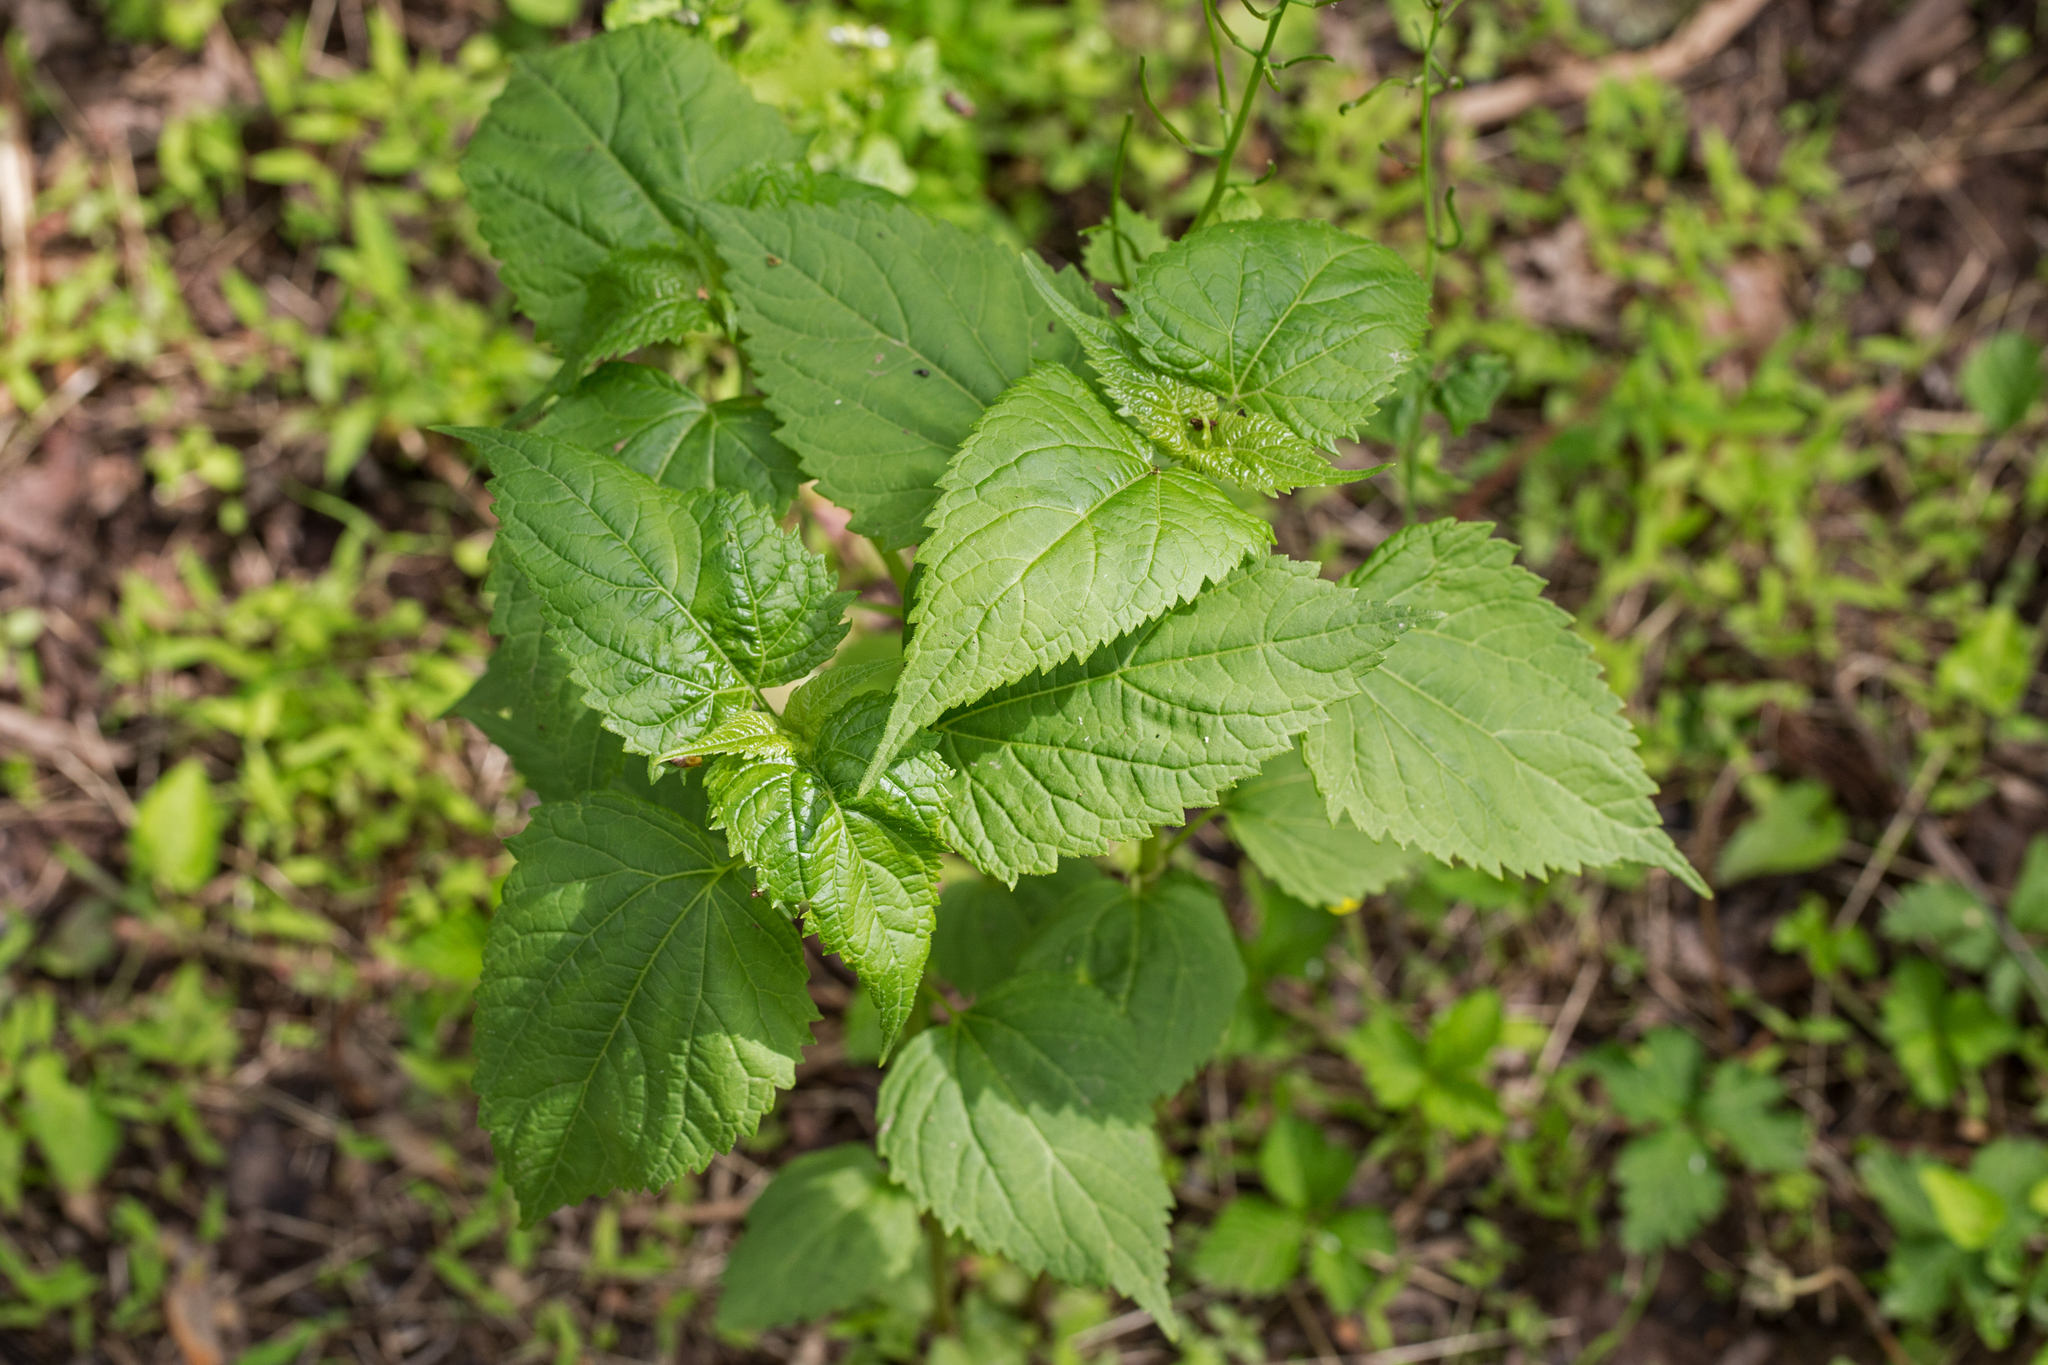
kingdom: Plantae
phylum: Tracheophyta
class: Magnoliopsida
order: Asterales
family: Asteraceae
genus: Ageratina
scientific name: Ageratina altissima
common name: White snakeroot
